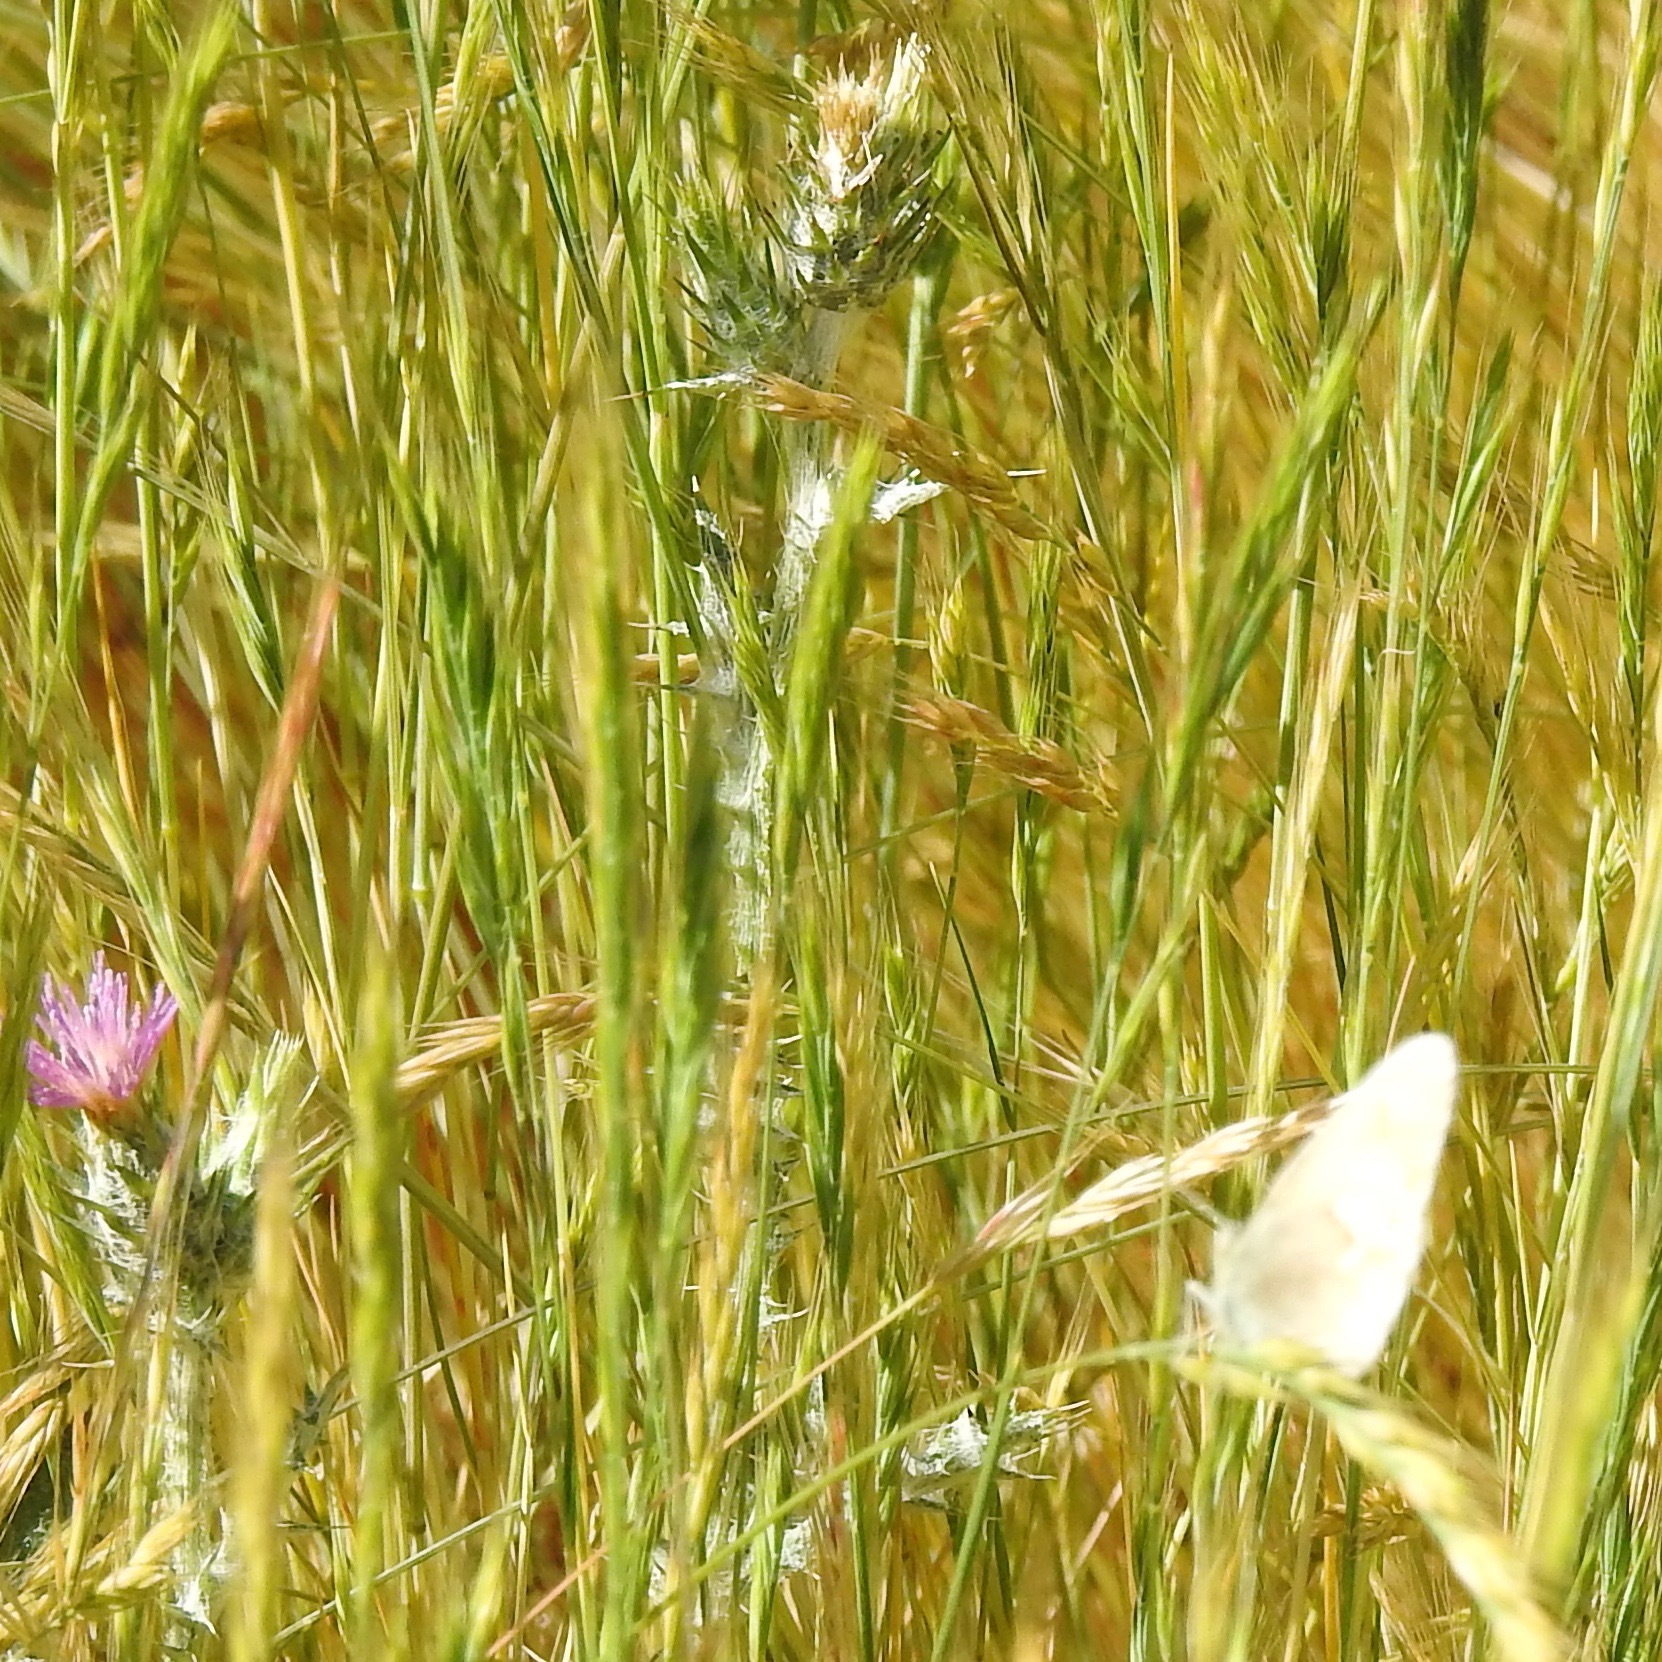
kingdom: Animalia
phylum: Arthropoda
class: Insecta
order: Lepidoptera
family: Nymphalidae
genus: Coenonympha
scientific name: Coenonympha california
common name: Common ringlet
